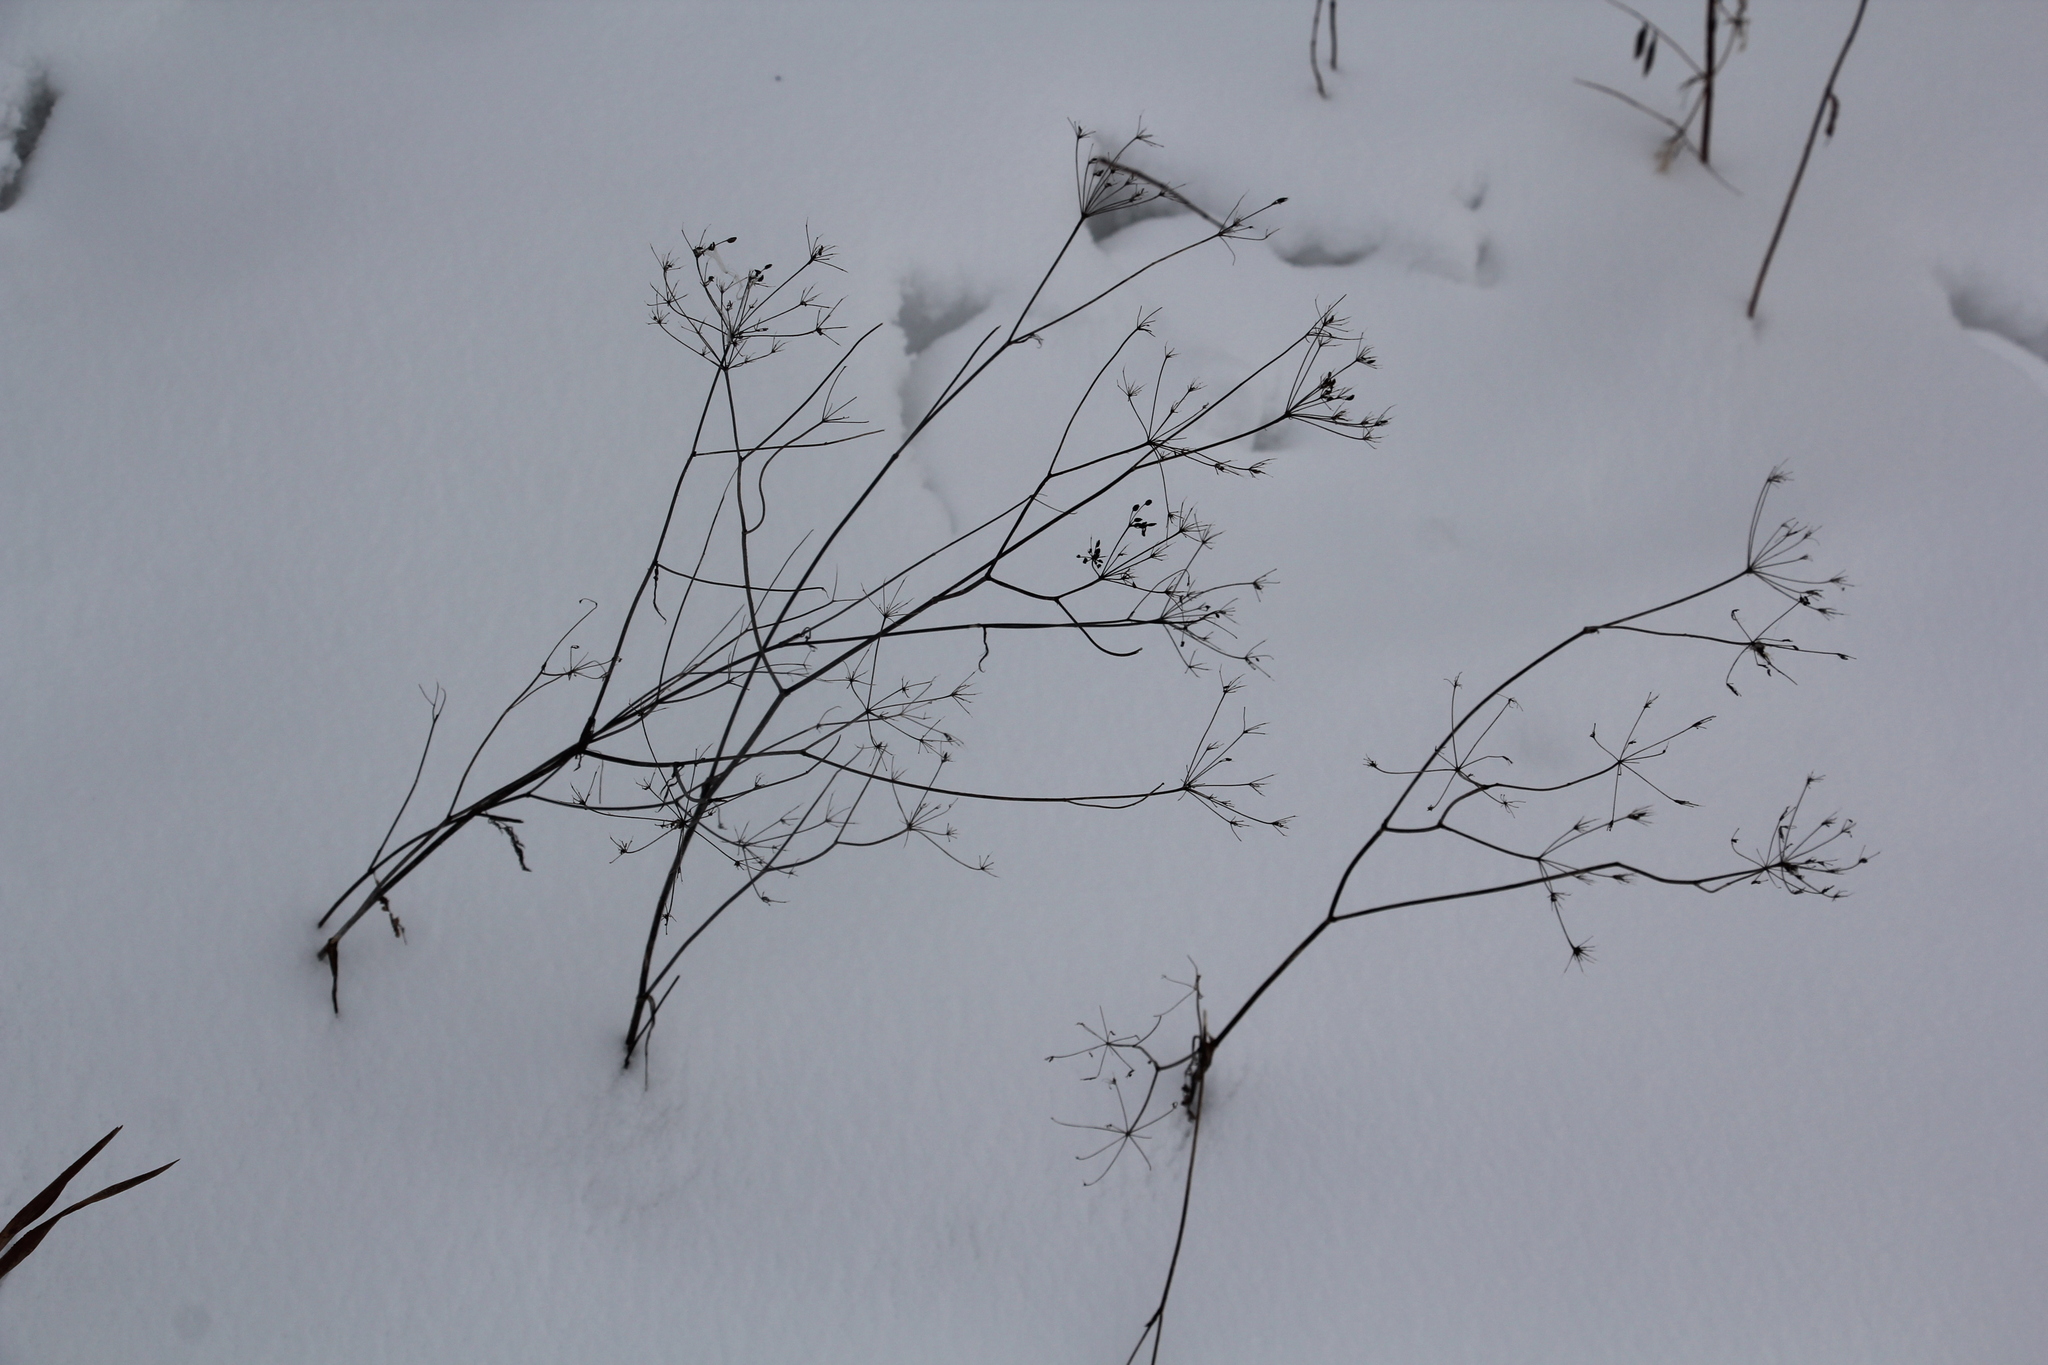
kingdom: Plantae
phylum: Tracheophyta
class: Magnoliopsida
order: Apiales
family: Apiaceae
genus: Carum
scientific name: Carum carvi
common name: Caraway
